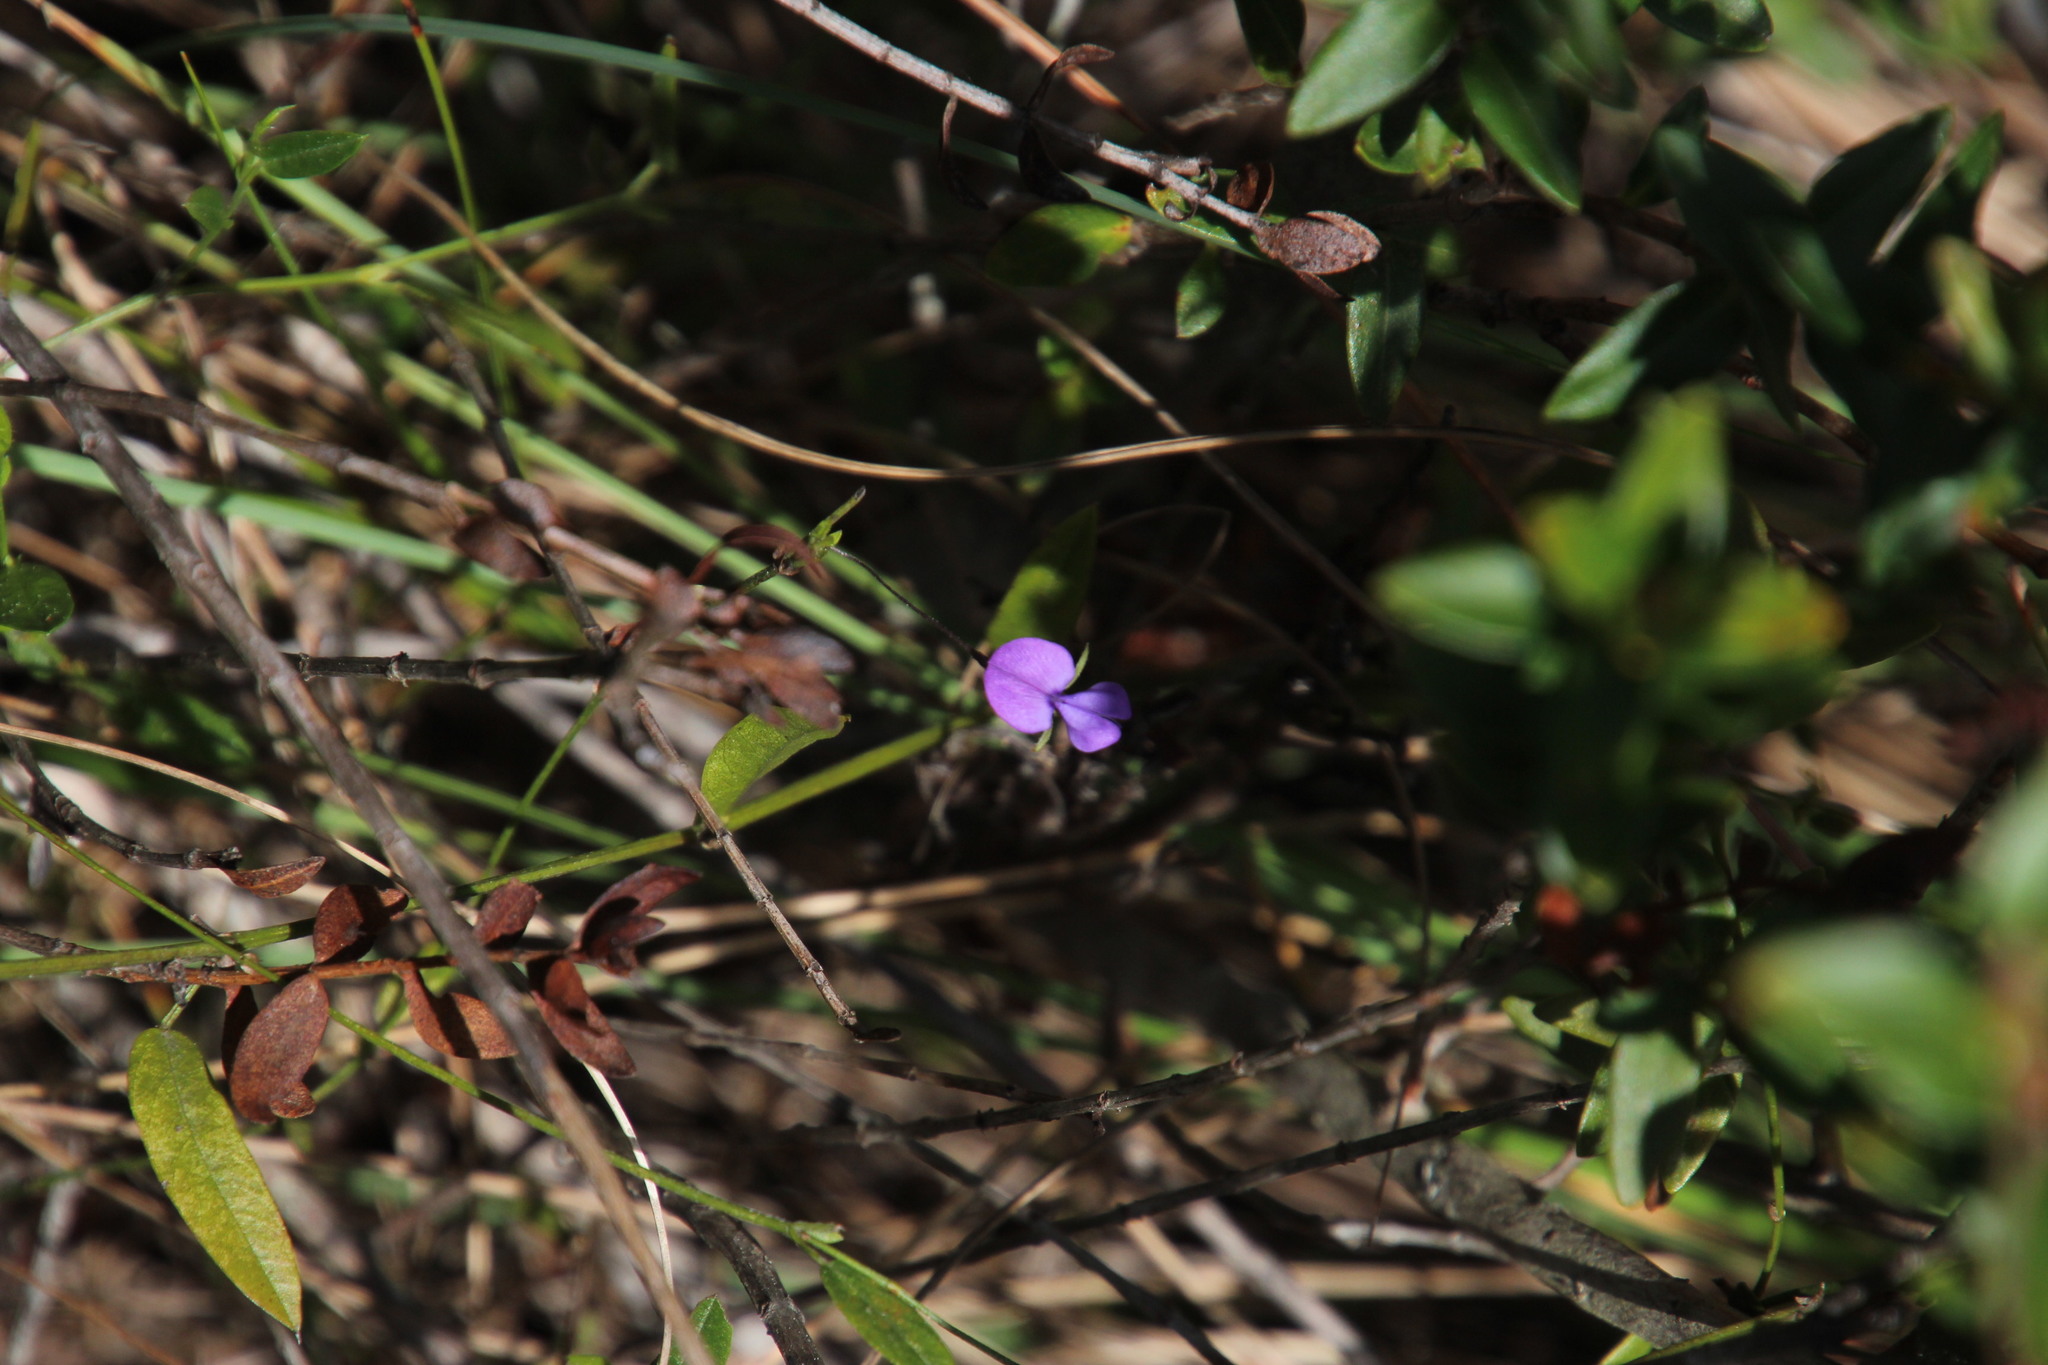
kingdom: Plantae
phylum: Tracheophyta
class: Magnoliopsida
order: Fabales
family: Fabaceae
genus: Psoralea
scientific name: Psoralea plauta
